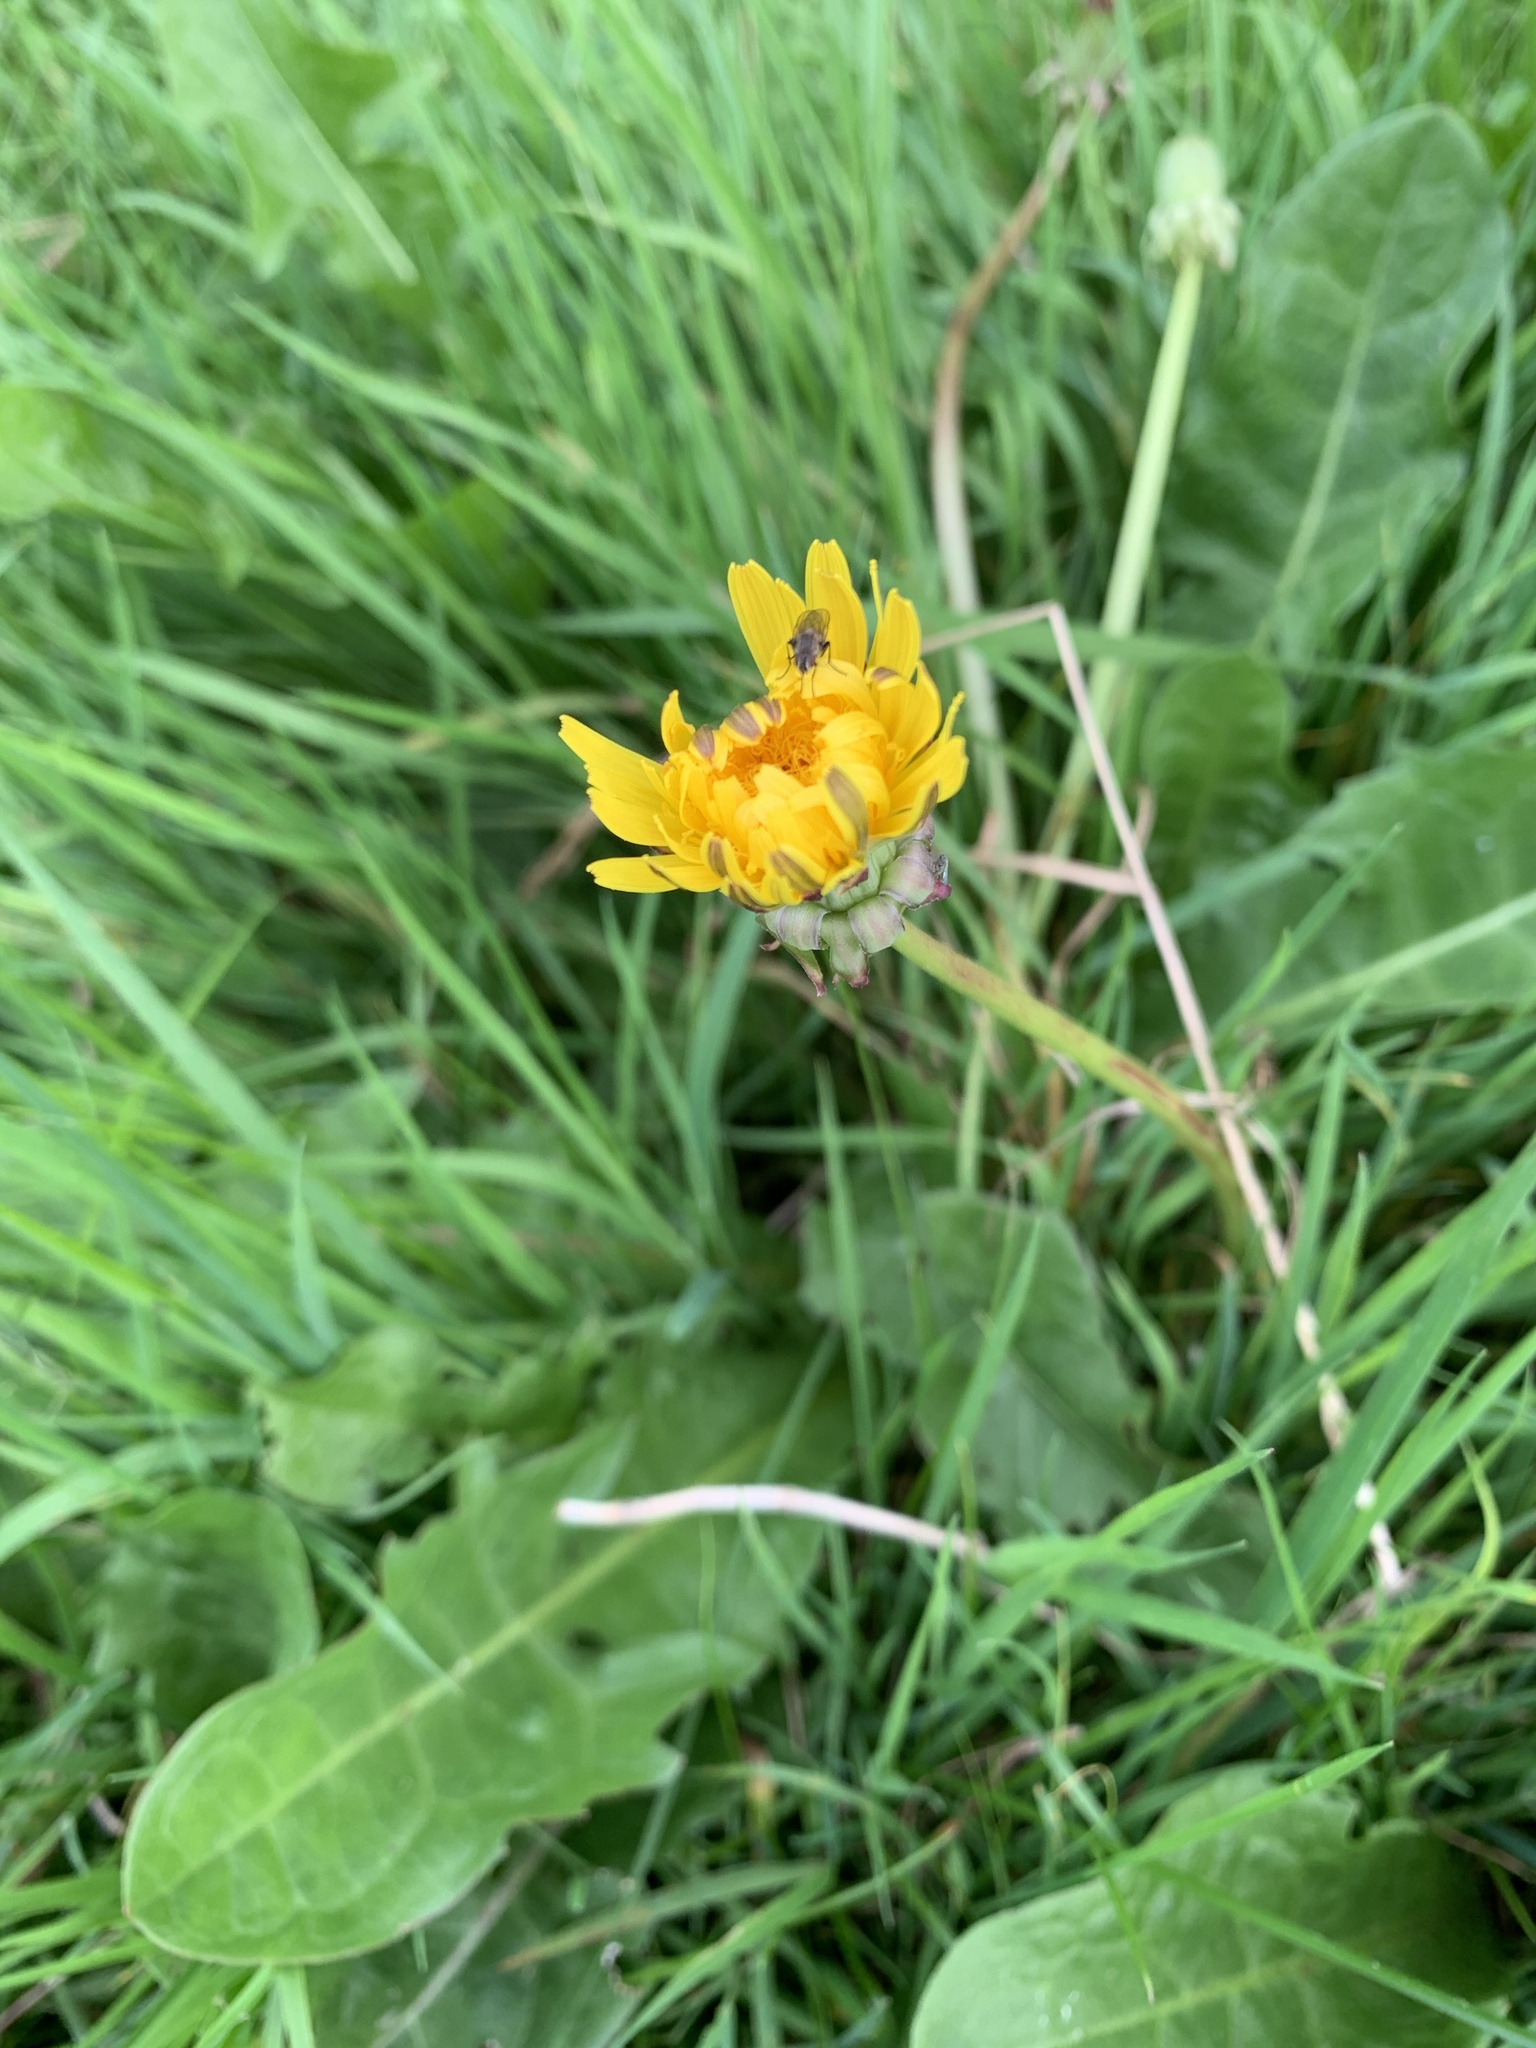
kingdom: Plantae
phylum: Tracheophyta
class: Magnoliopsida
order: Asterales
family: Asteraceae
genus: Taraxacum
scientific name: Taraxacum officinale
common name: Common dandelion
